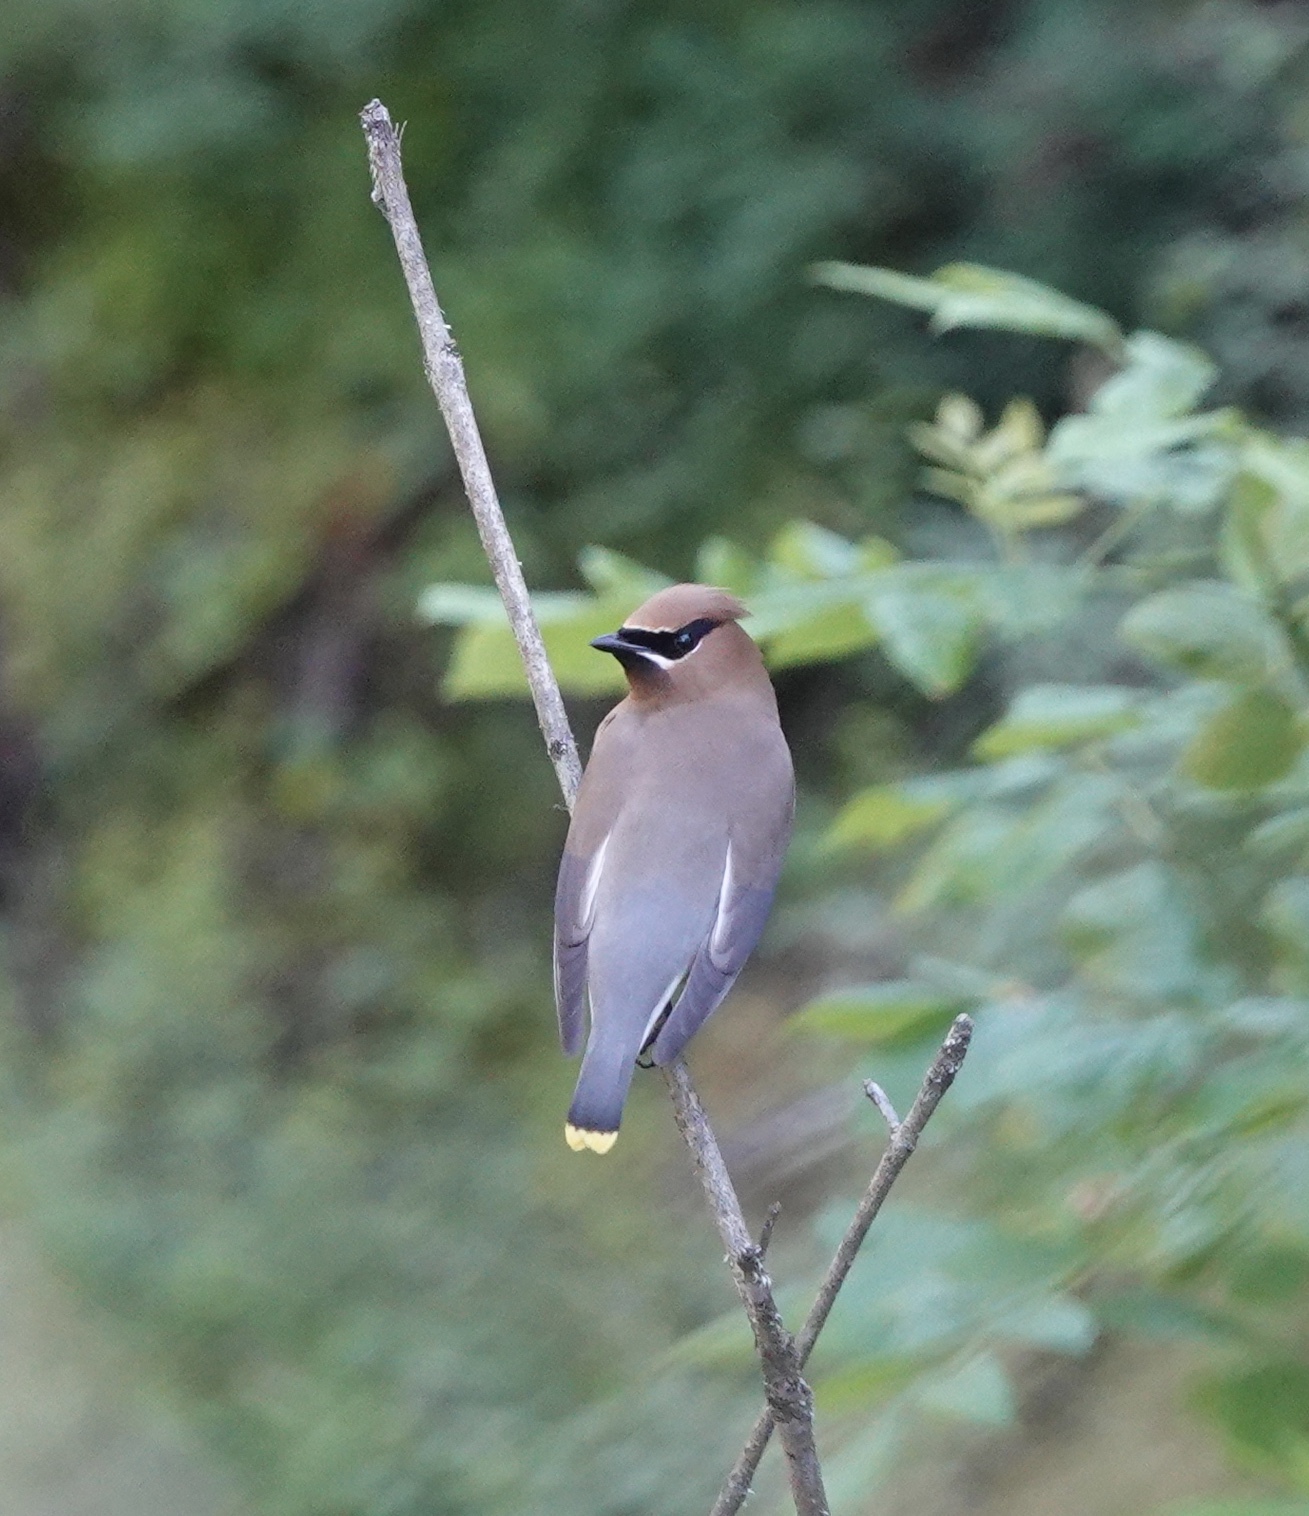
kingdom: Animalia
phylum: Chordata
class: Aves
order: Passeriformes
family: Bombycillidae
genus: Bombycilla
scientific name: Bombycilla cedrorum
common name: Cedar waxwing
